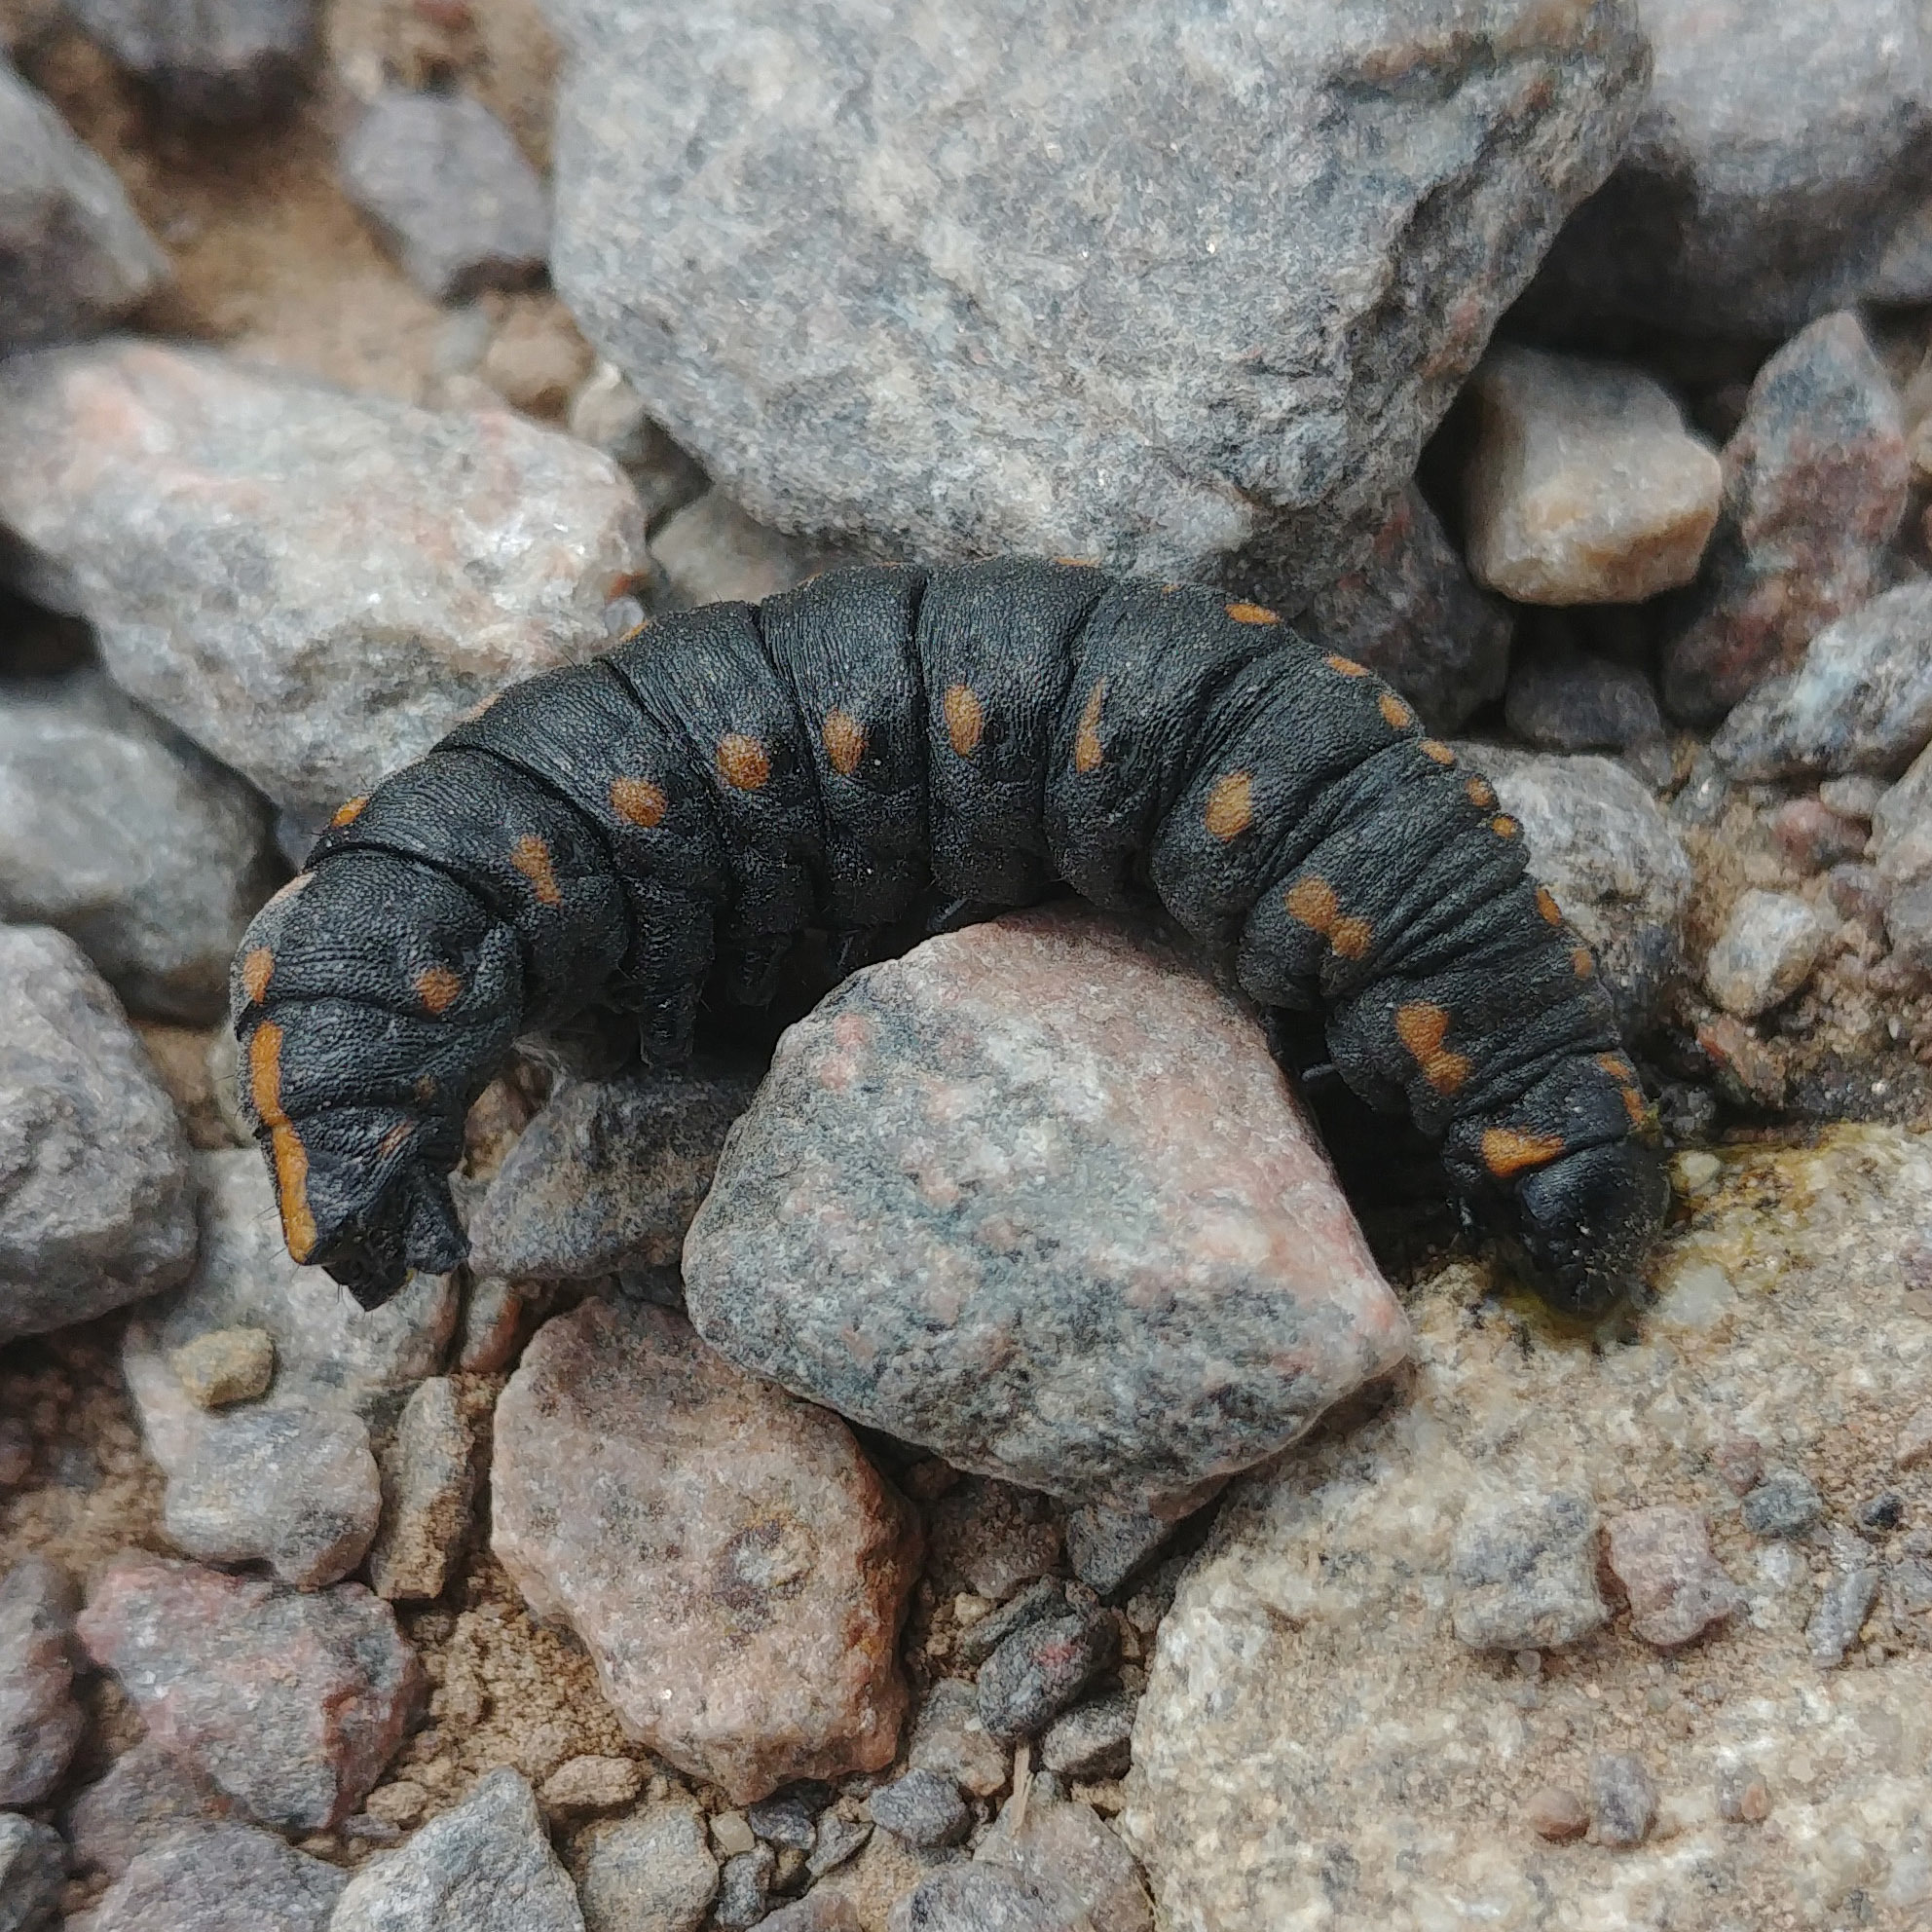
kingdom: Animalia
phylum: Arthropoda
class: Insecta
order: Lepidoptera
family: Noctuidae
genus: Cucullia
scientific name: Cucullia lucifuga
